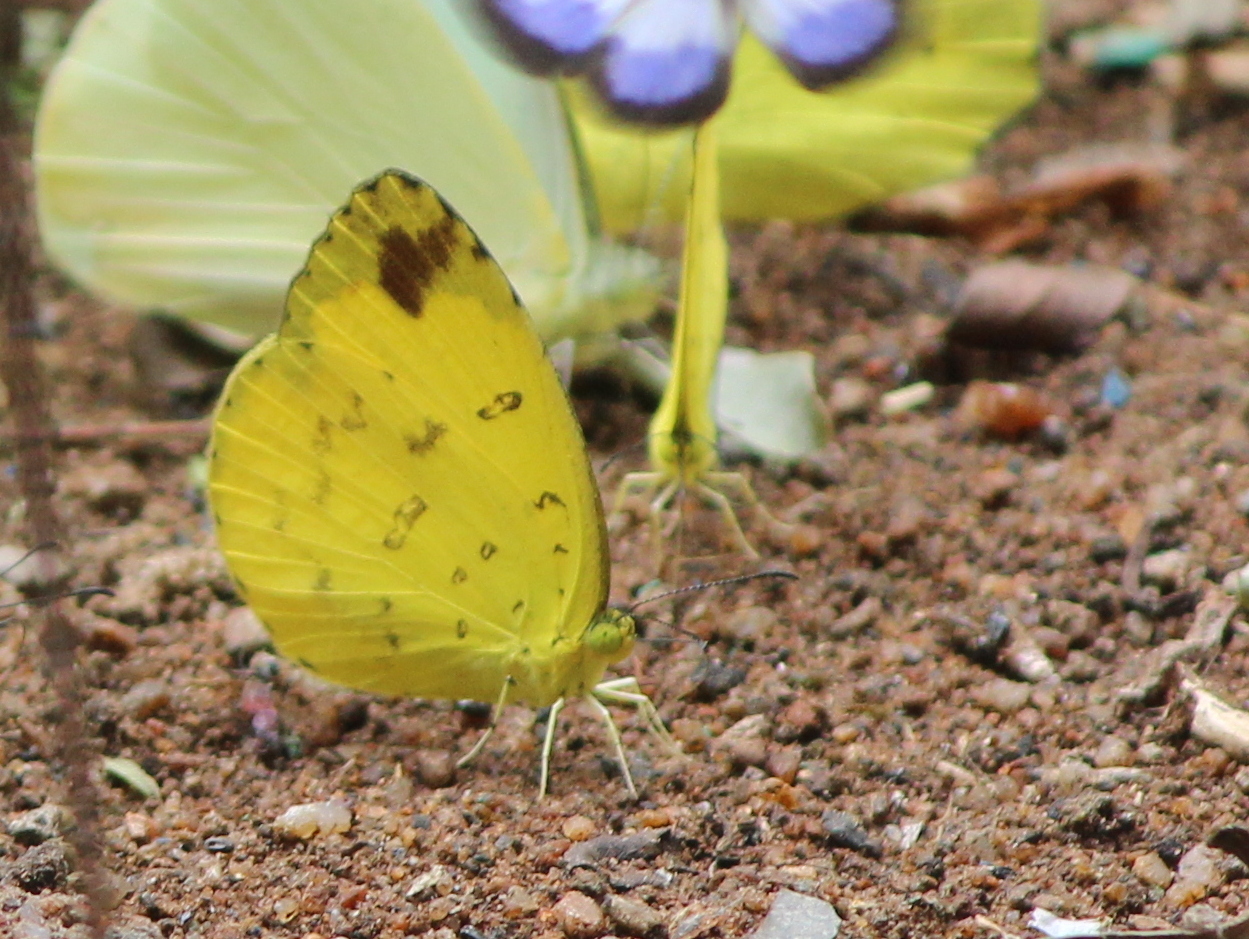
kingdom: Animalia
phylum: Arthropoda
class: Insecta
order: Lepidoptera
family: Pieridae
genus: Eurema
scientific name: Eurema blanda
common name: Three-spot grass yellow
